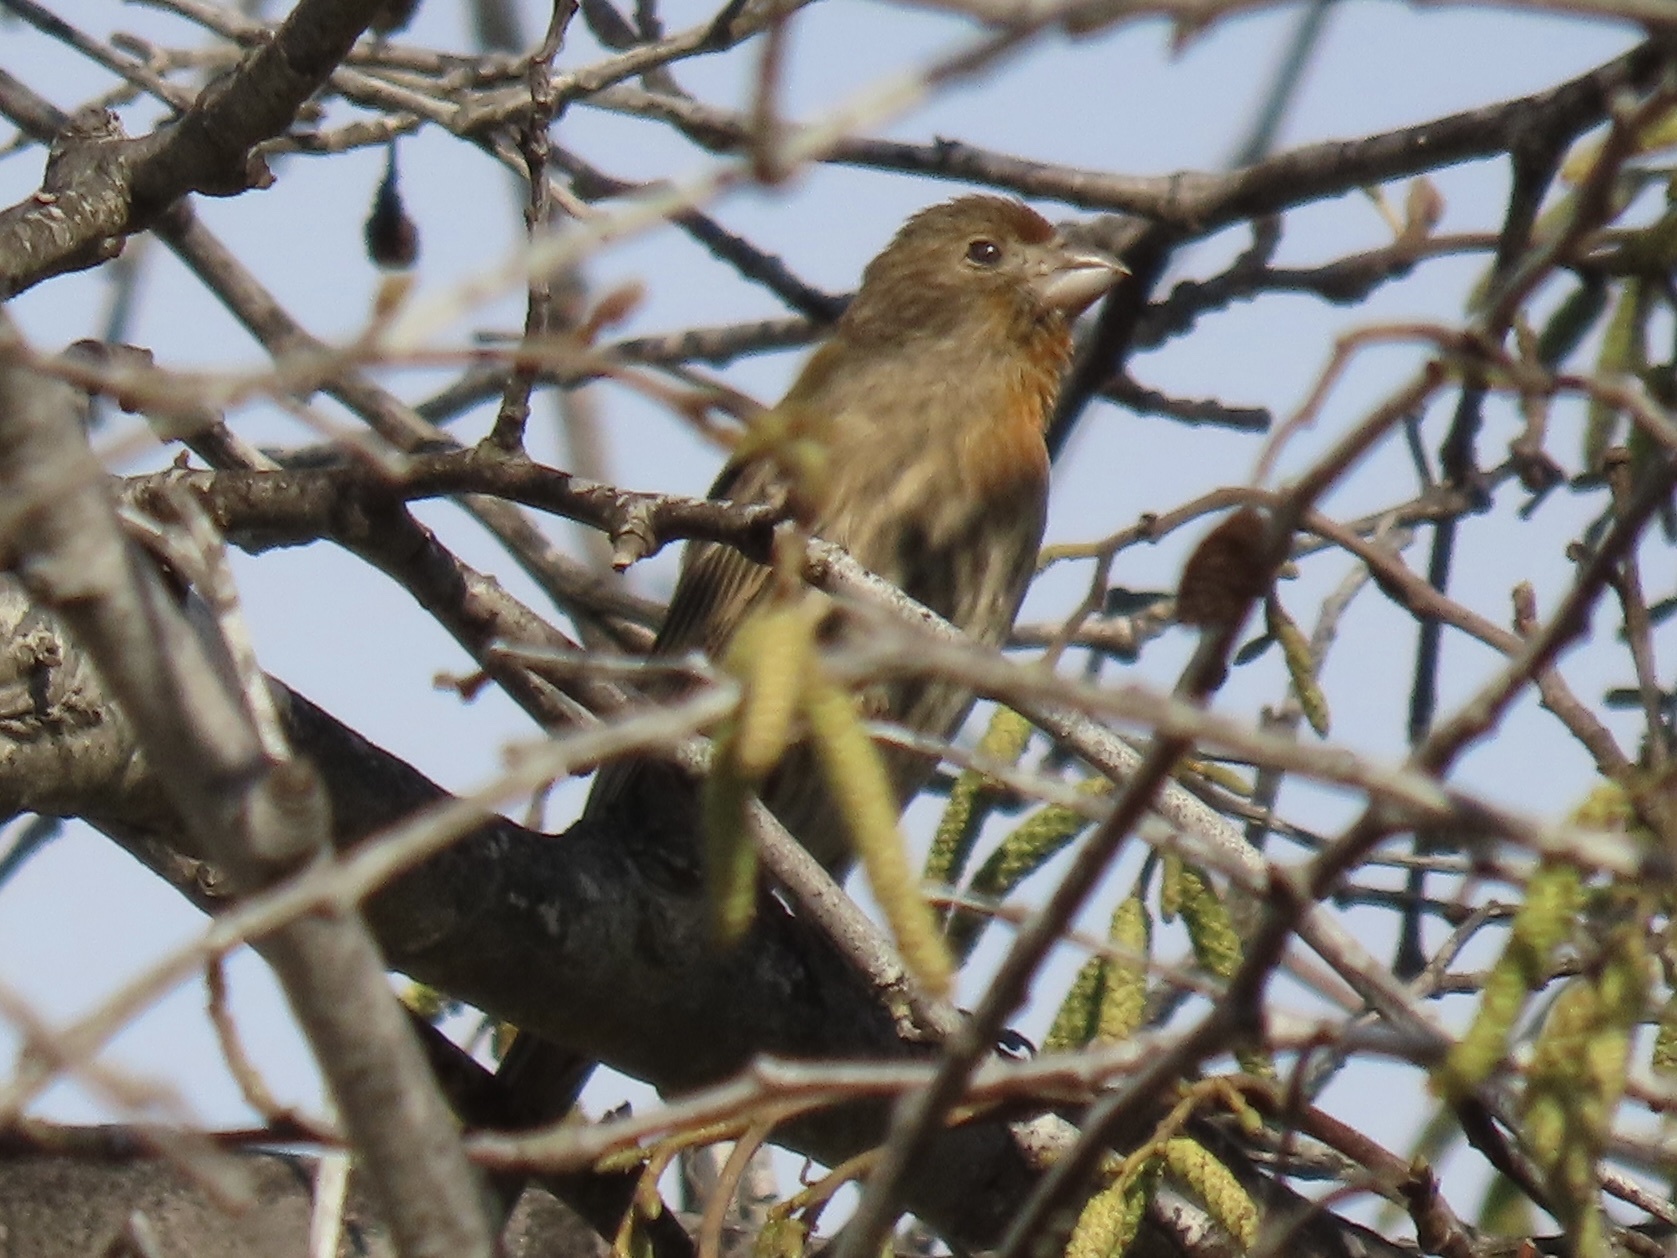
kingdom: Animalia
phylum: Chordata
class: Aves
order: Passeriformes
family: Fringillidae
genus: Haemorhous
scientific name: Haemorhous mexicanus
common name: House finch
